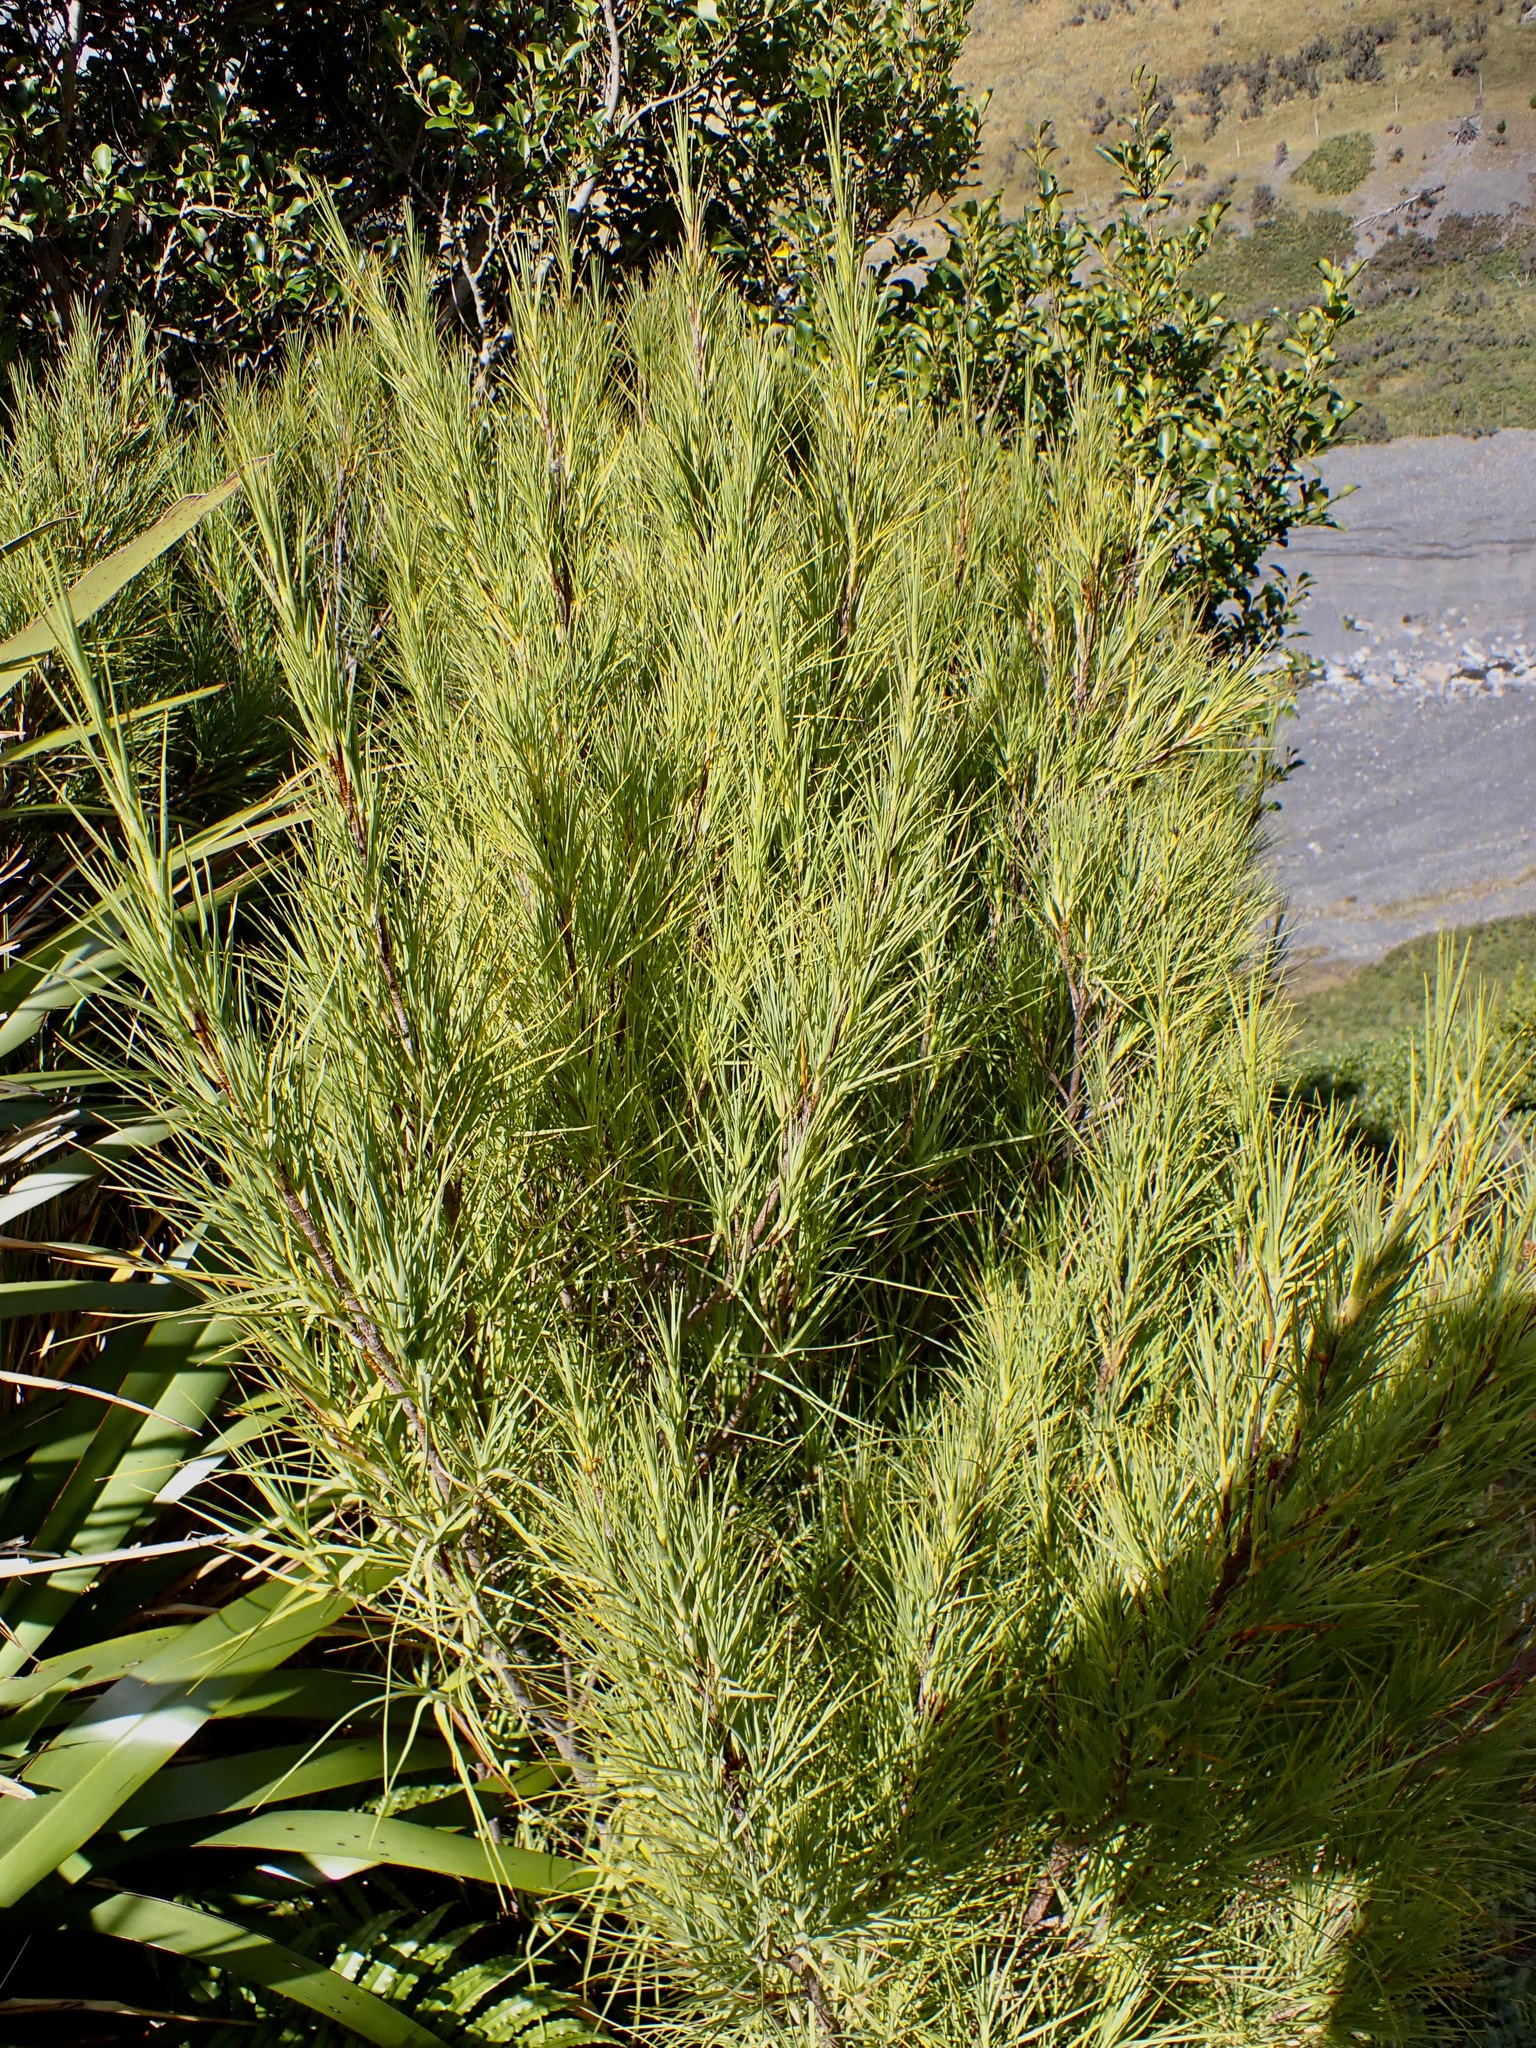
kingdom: Plantae
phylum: Tracheophyta
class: Magnoliopsida
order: Ericales
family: Ericaceae
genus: Dracophyllum
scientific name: Dracophyllum longifolium
